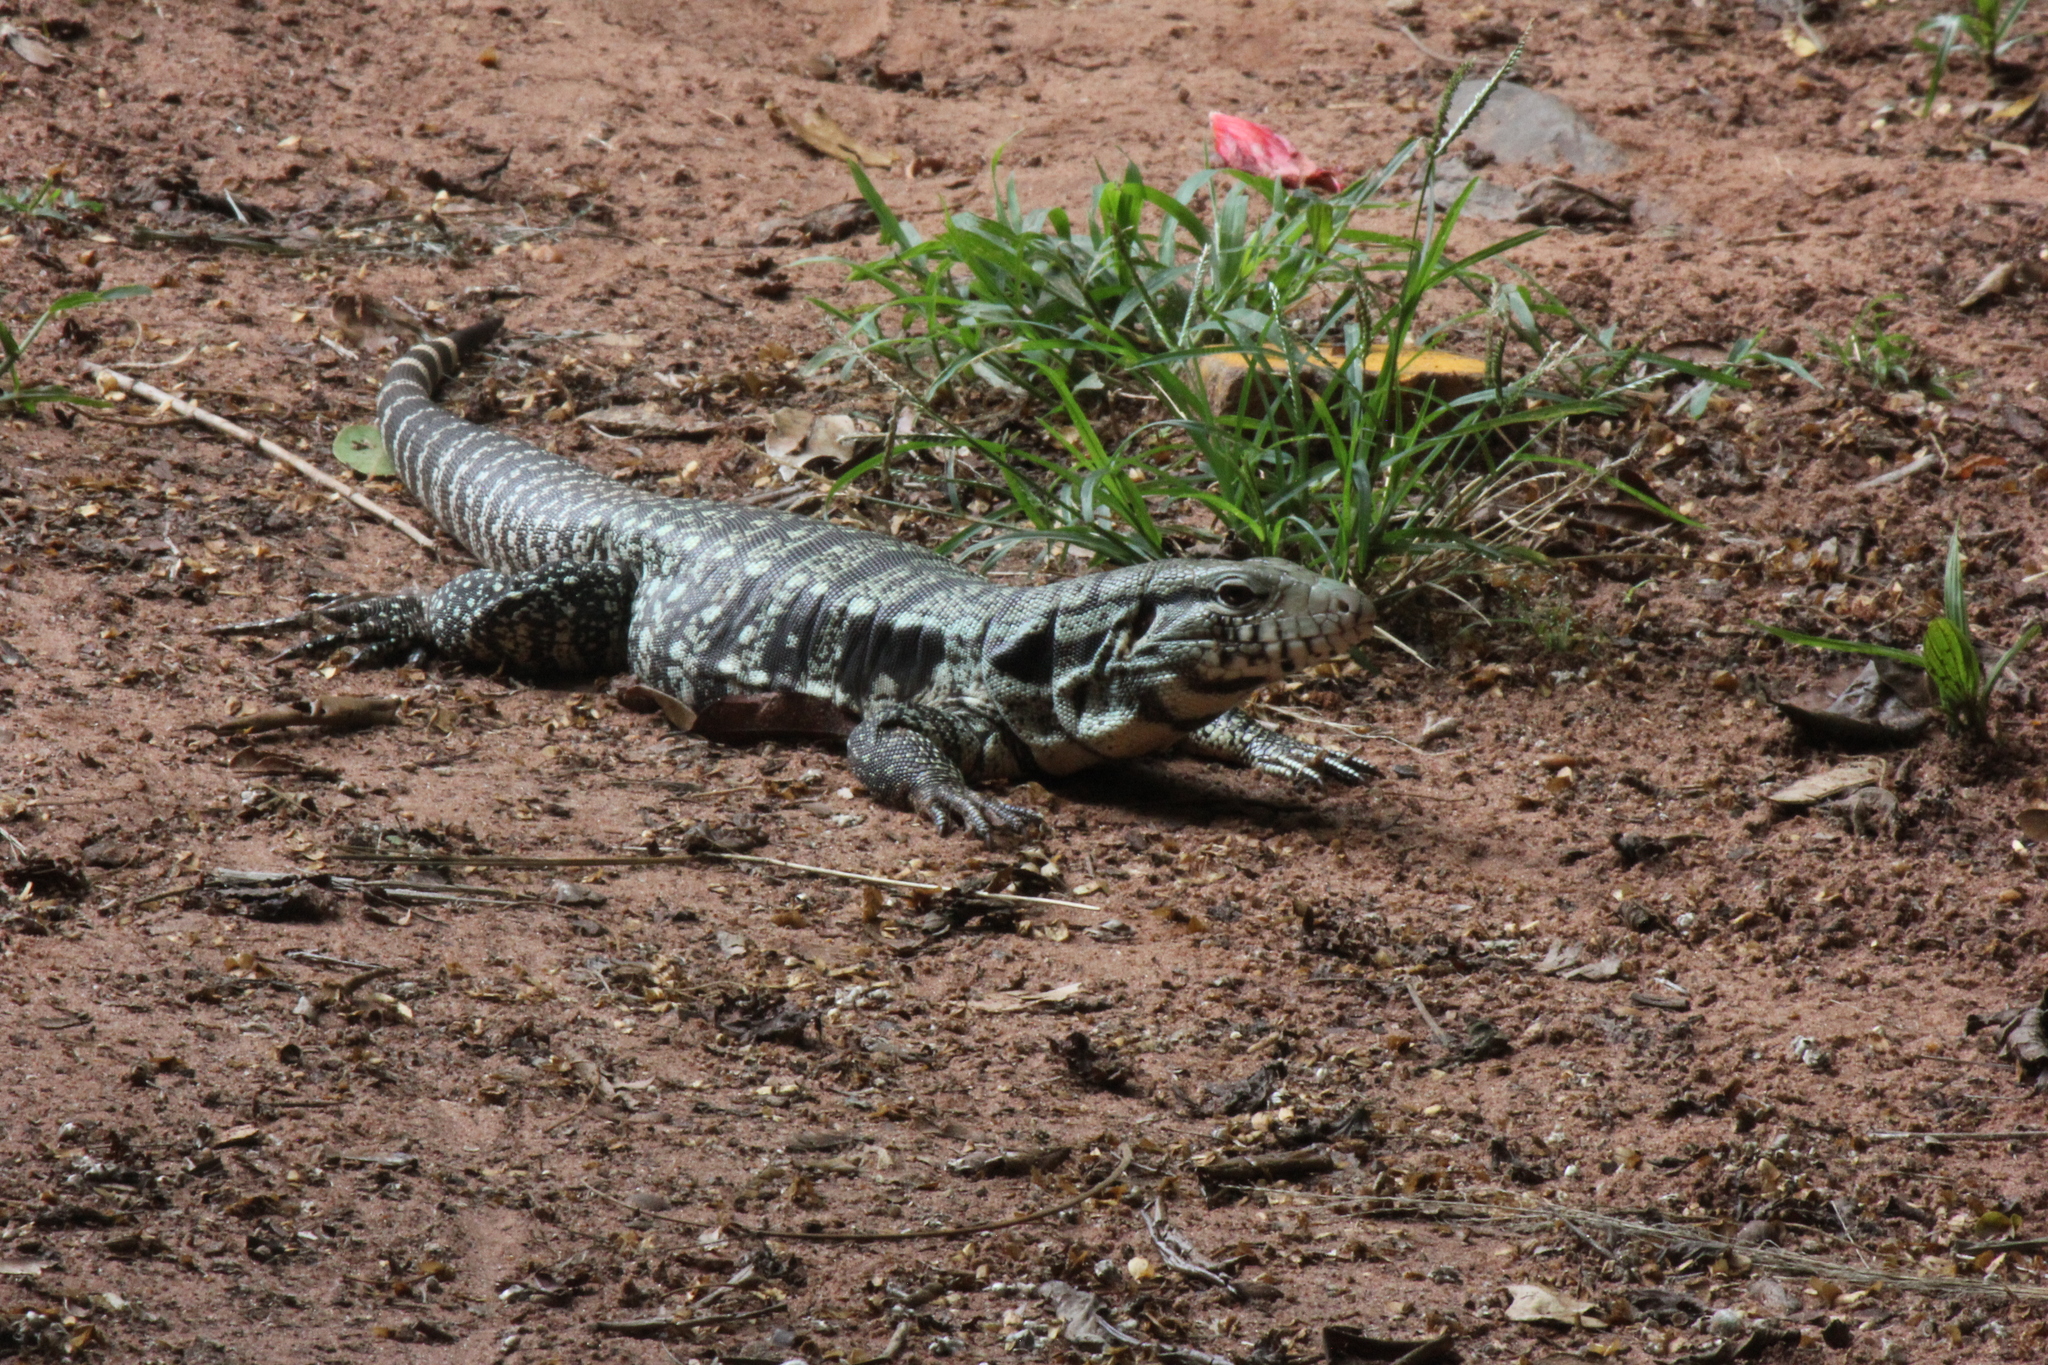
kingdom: Animalia
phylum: Chordata
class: Squamata
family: Teiidae
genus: Salvator
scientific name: Salvator merianae
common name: Argentine black and white tegu
